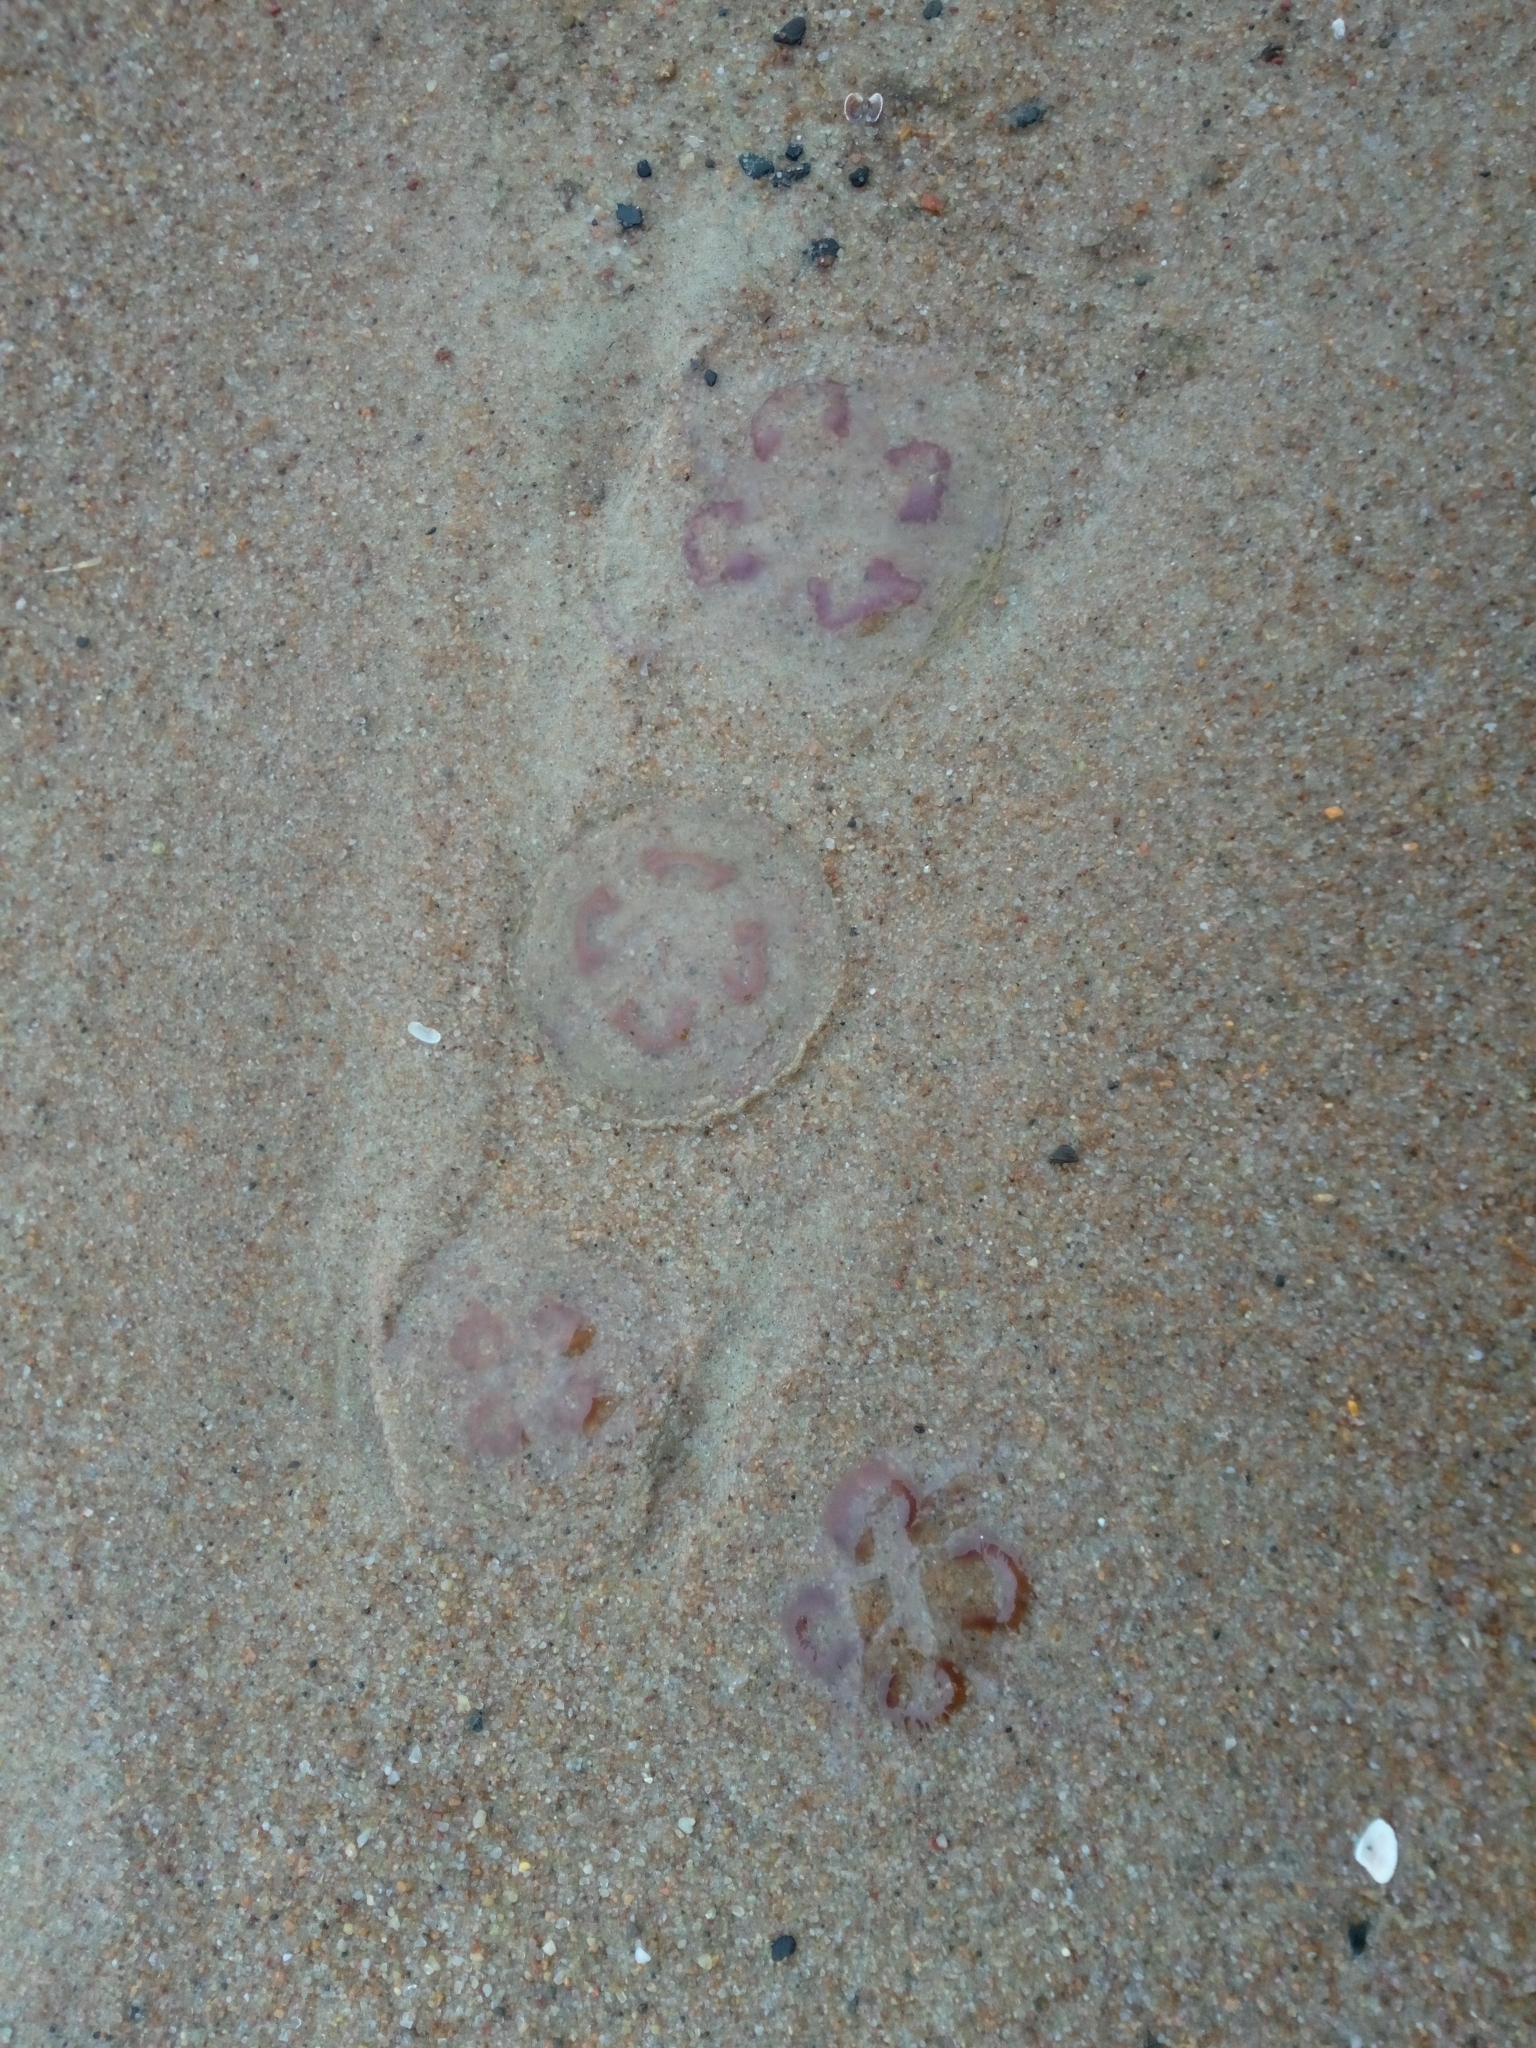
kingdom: Animalia
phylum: Cnidaria
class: Scyphozoa
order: Semaeostomeae
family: Ulmaridae
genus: Aurelia
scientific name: Aurelia aurita
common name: Moon jellyfish
